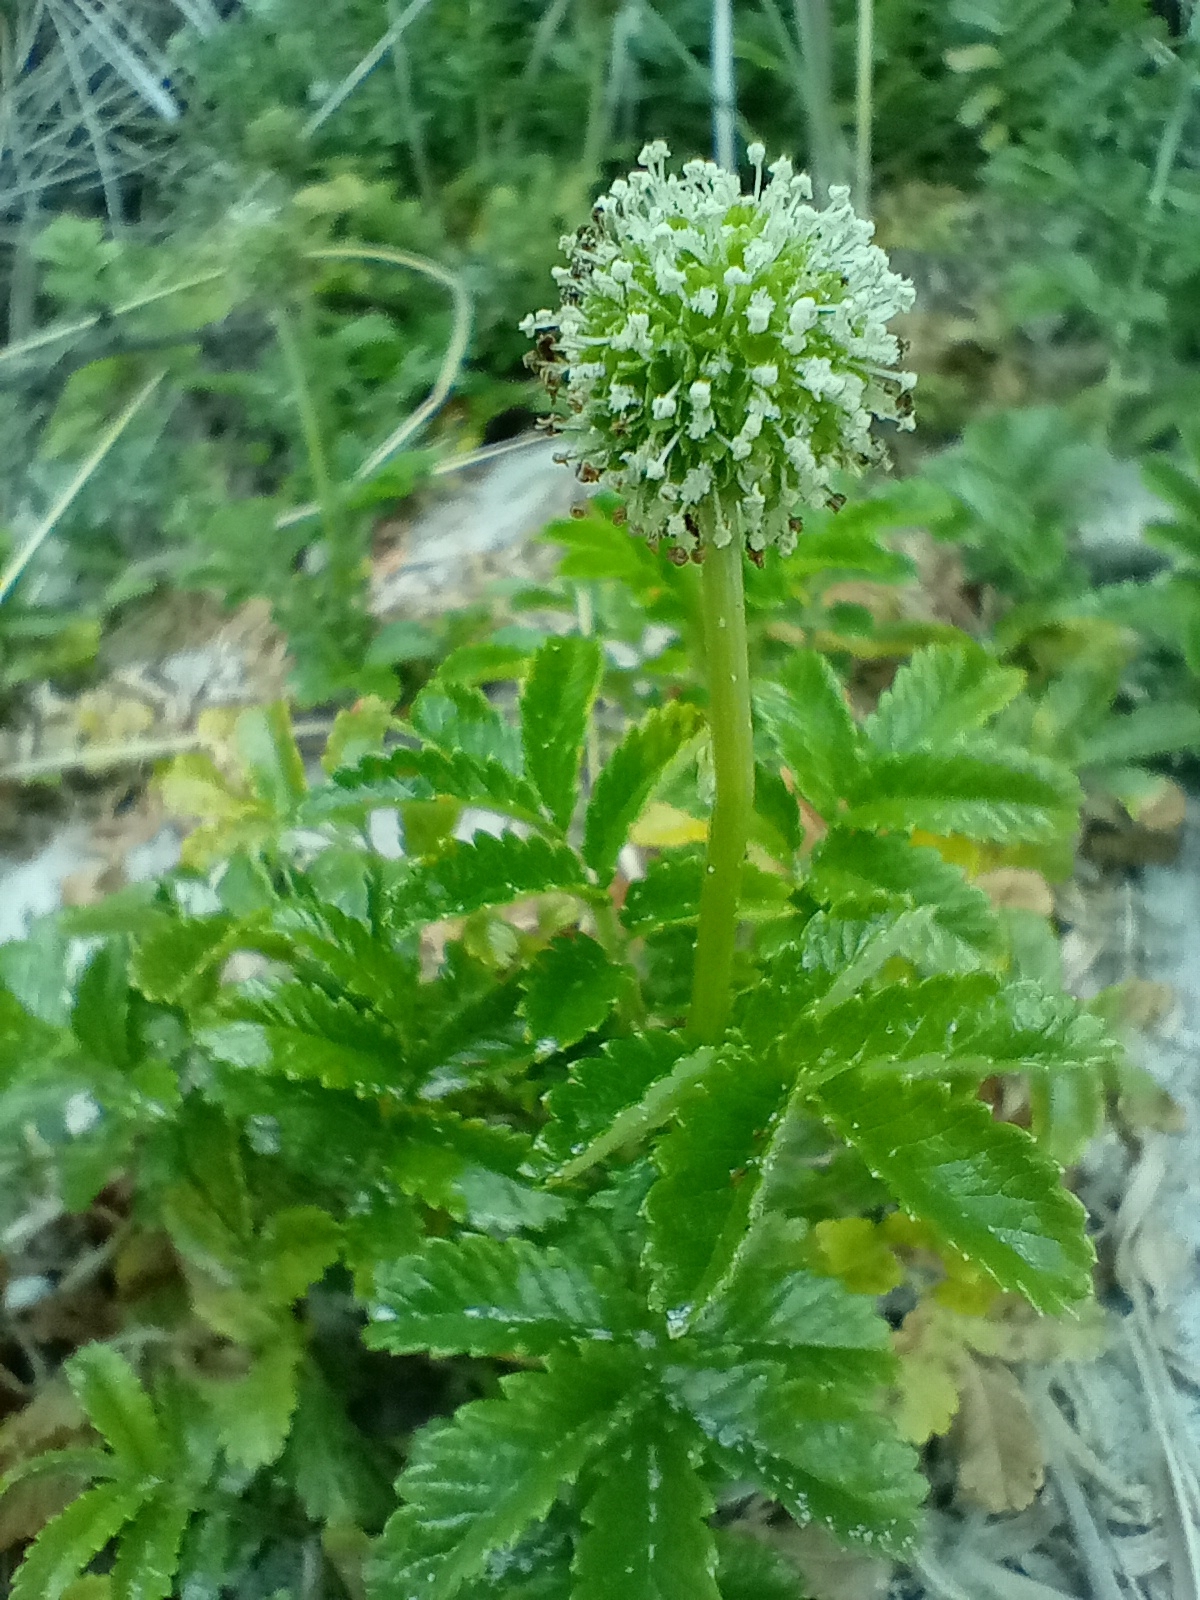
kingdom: Plantae
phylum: Tracheophyta
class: Magnoliopsida
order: Rosales
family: Rosaceae
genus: Acaena
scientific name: Acaena pallida
